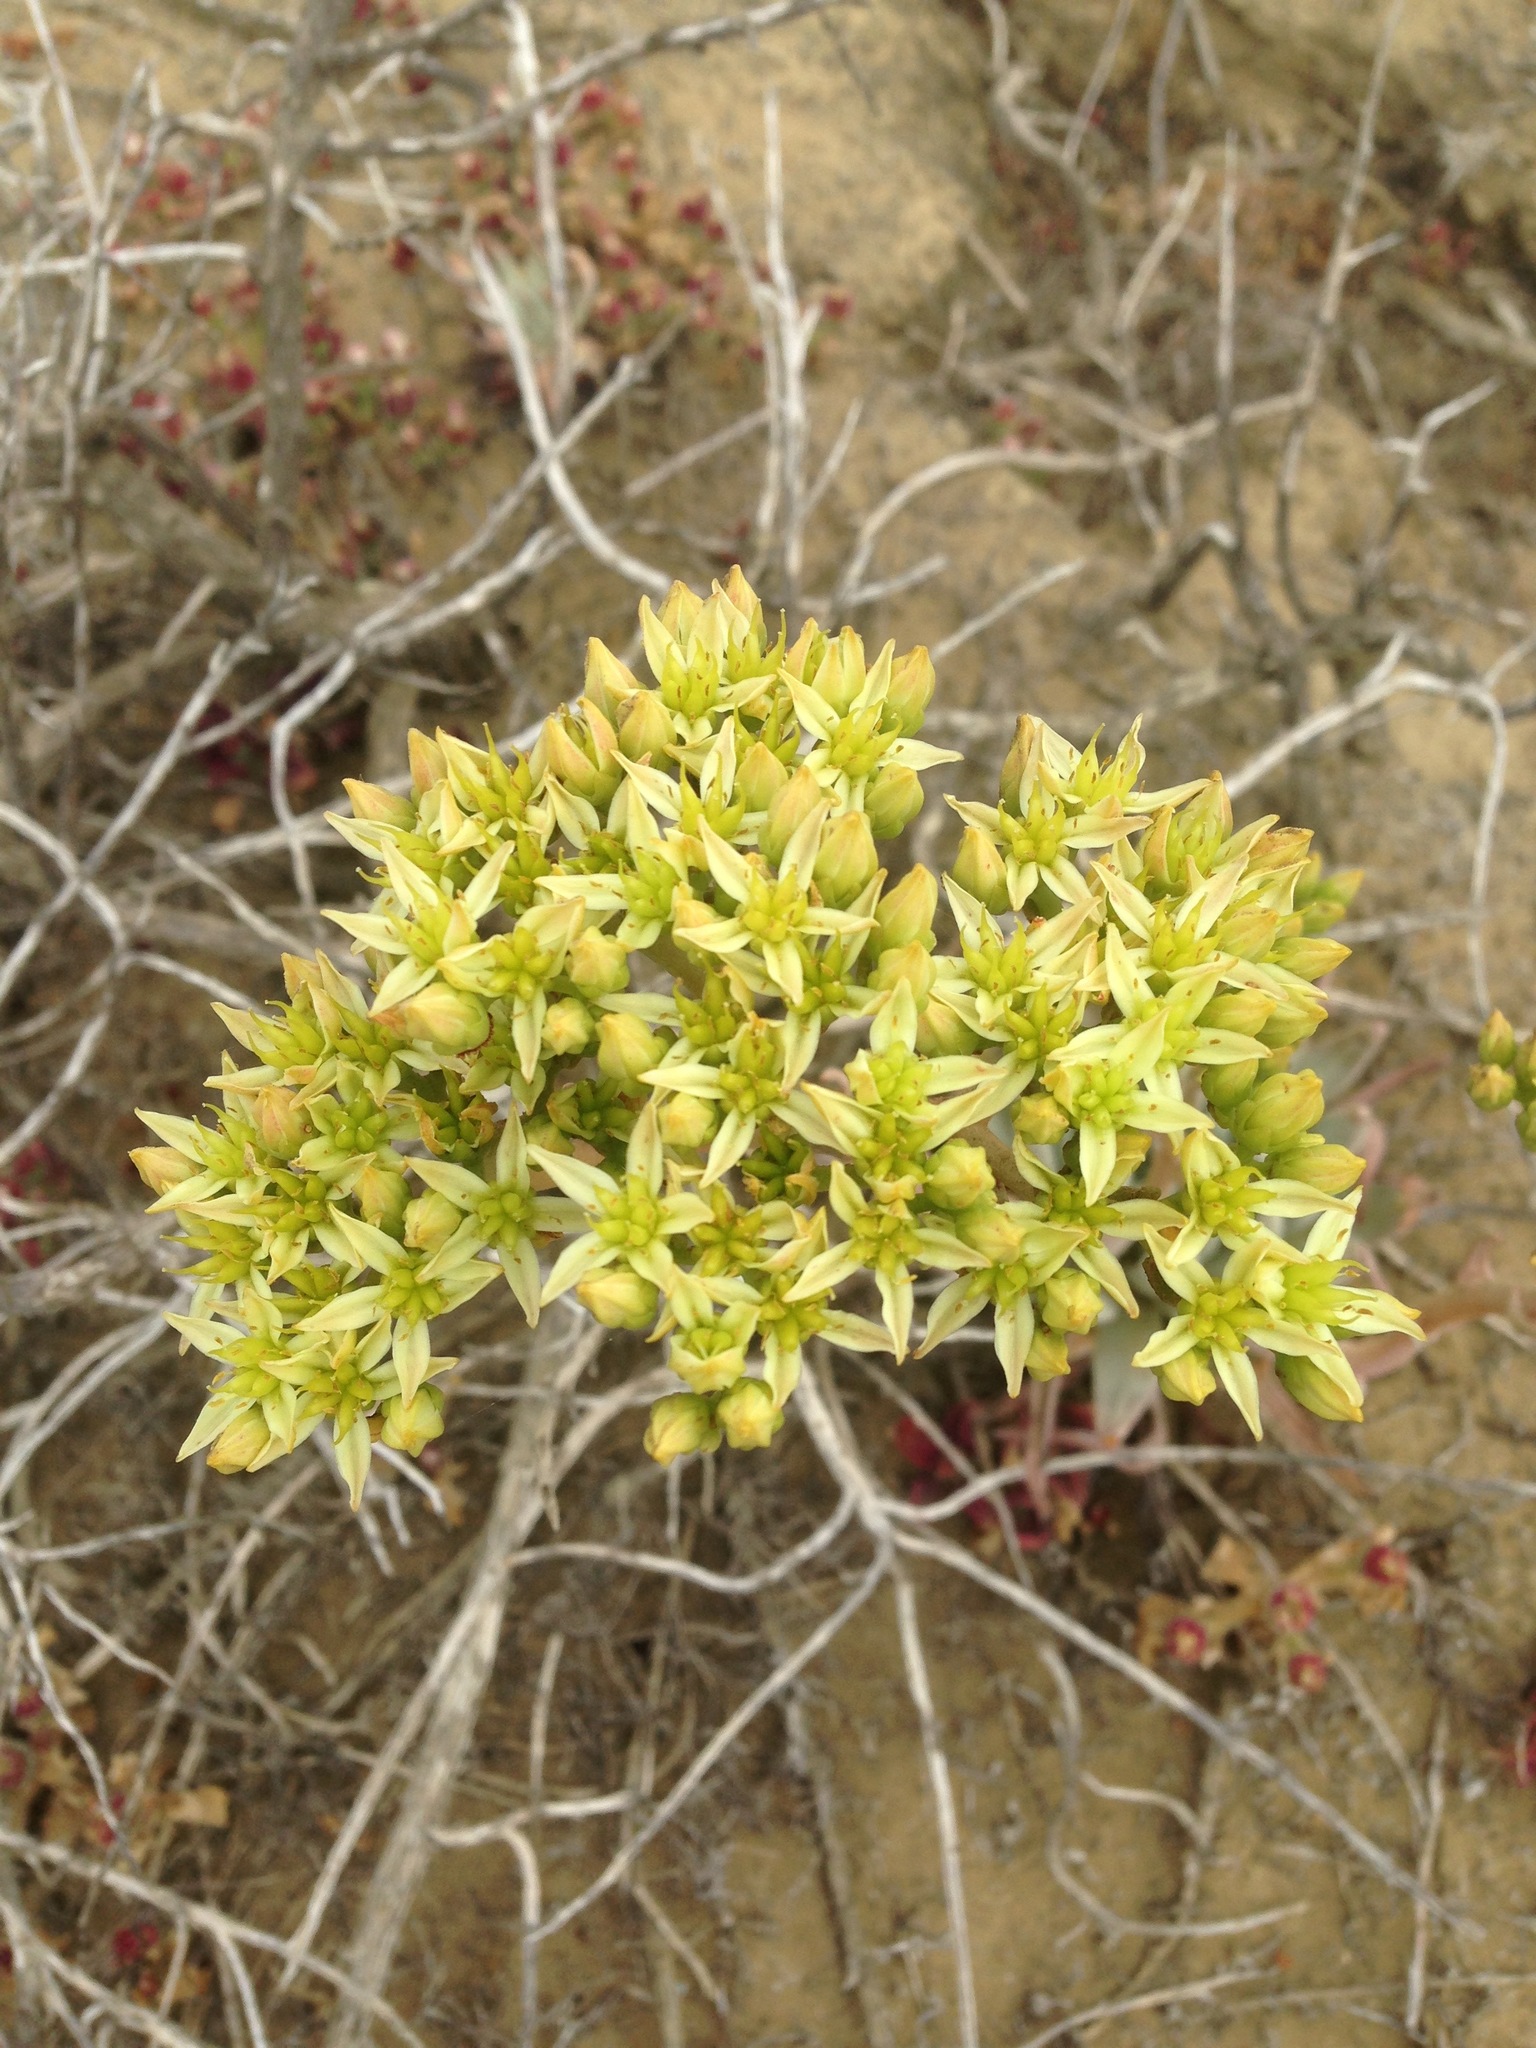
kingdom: Plantae
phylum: Tracheophyta
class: Magnoliopsida
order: Saxifragales
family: Crassulaceae
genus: Dudleya
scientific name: Dudleya virens
